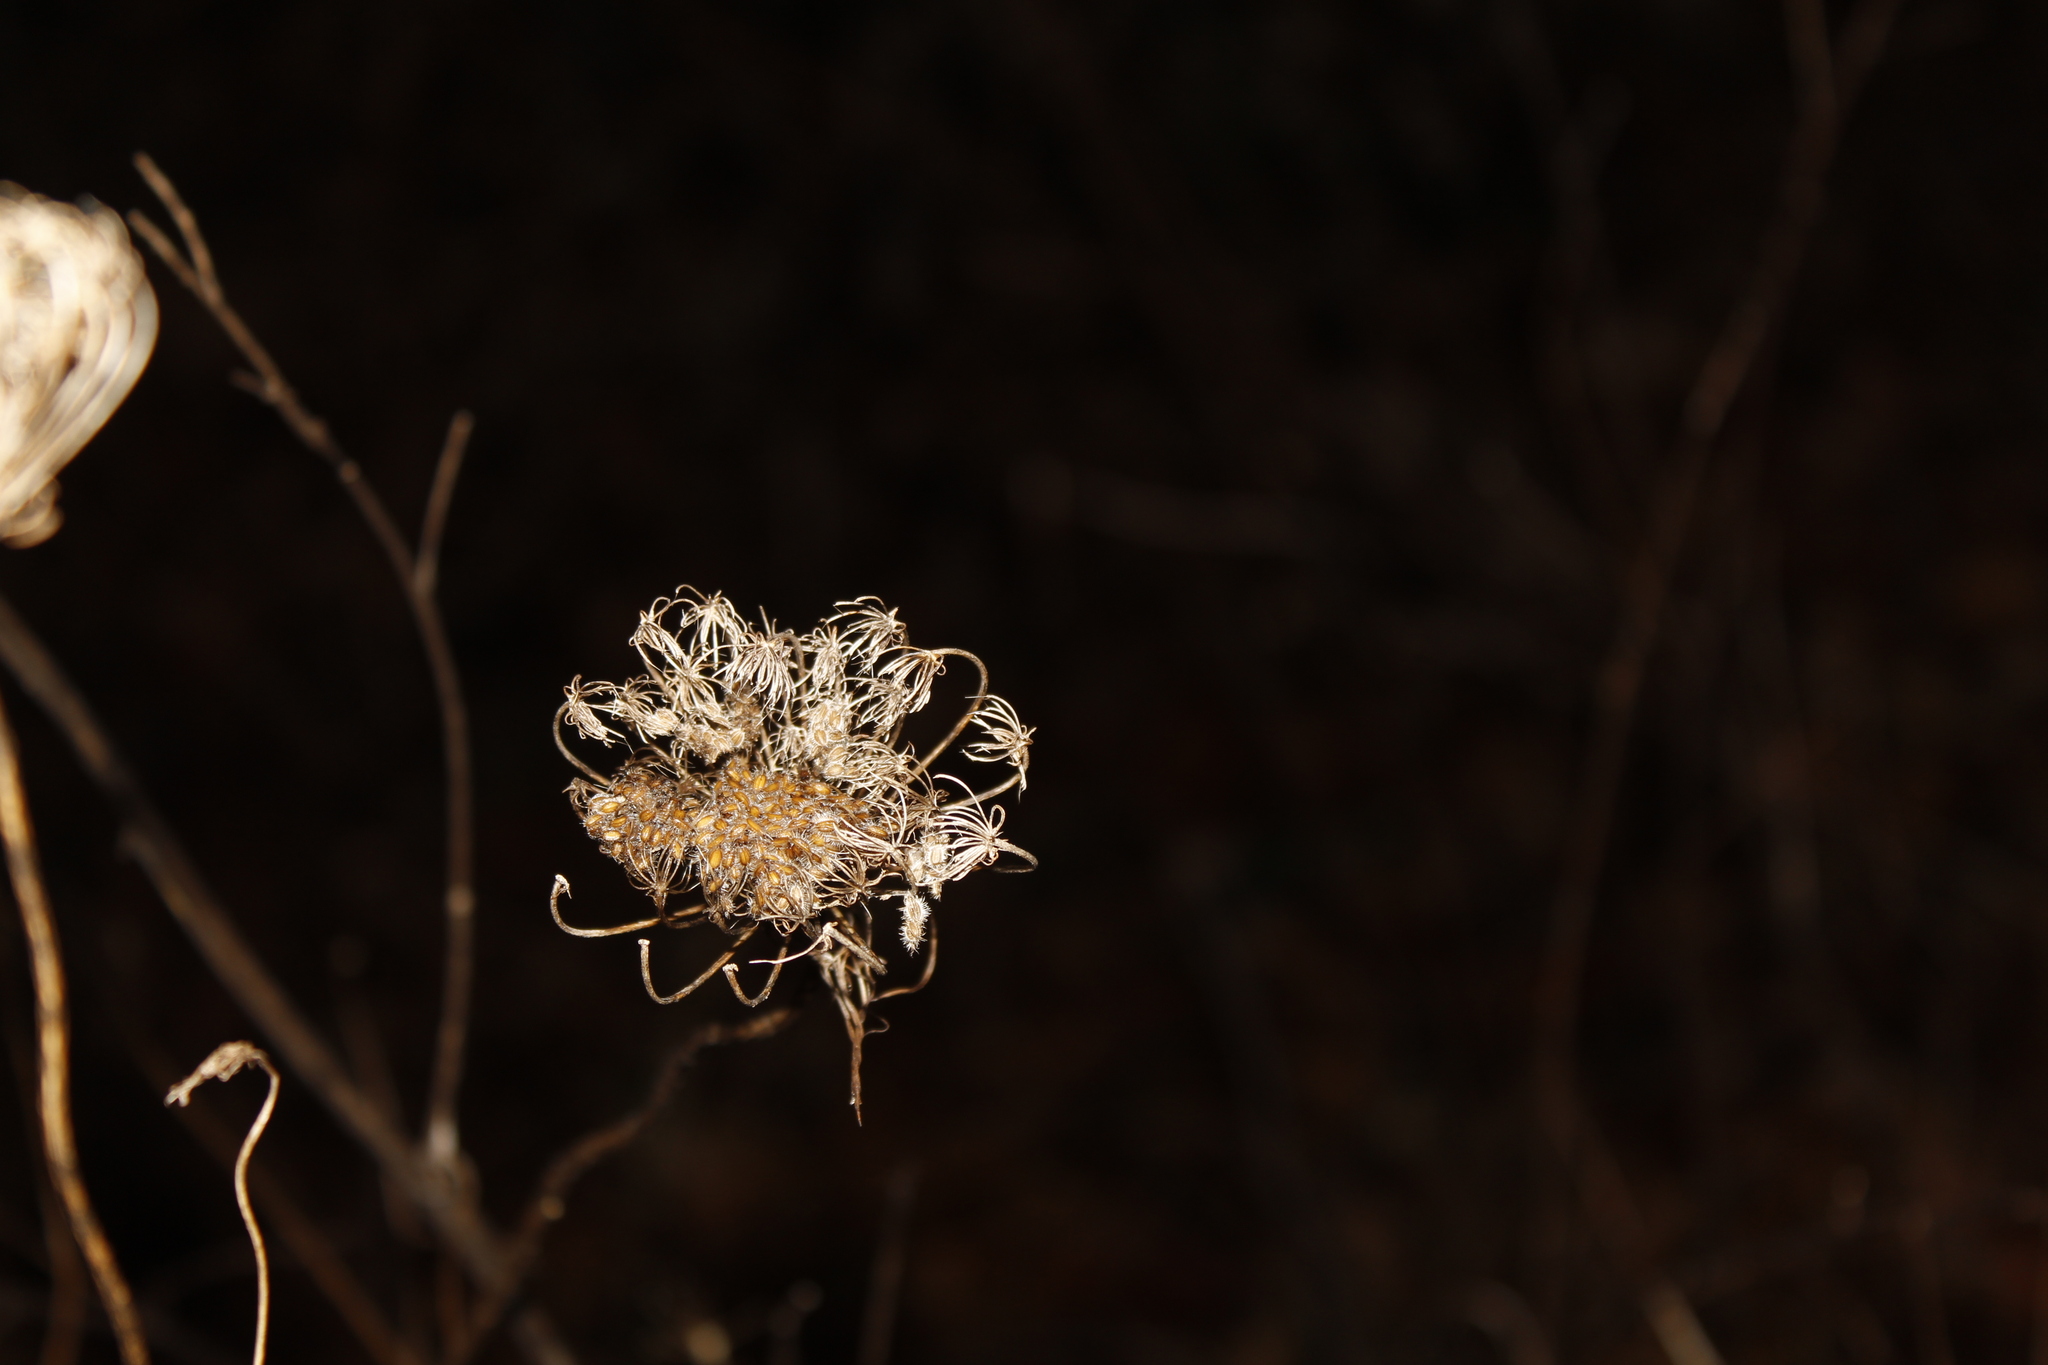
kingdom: Plantae
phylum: Tracheophyta
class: Magnoliopsida
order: Apiales
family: Apiaceae
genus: Daucus
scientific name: Daucus carota
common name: Wild carrot
